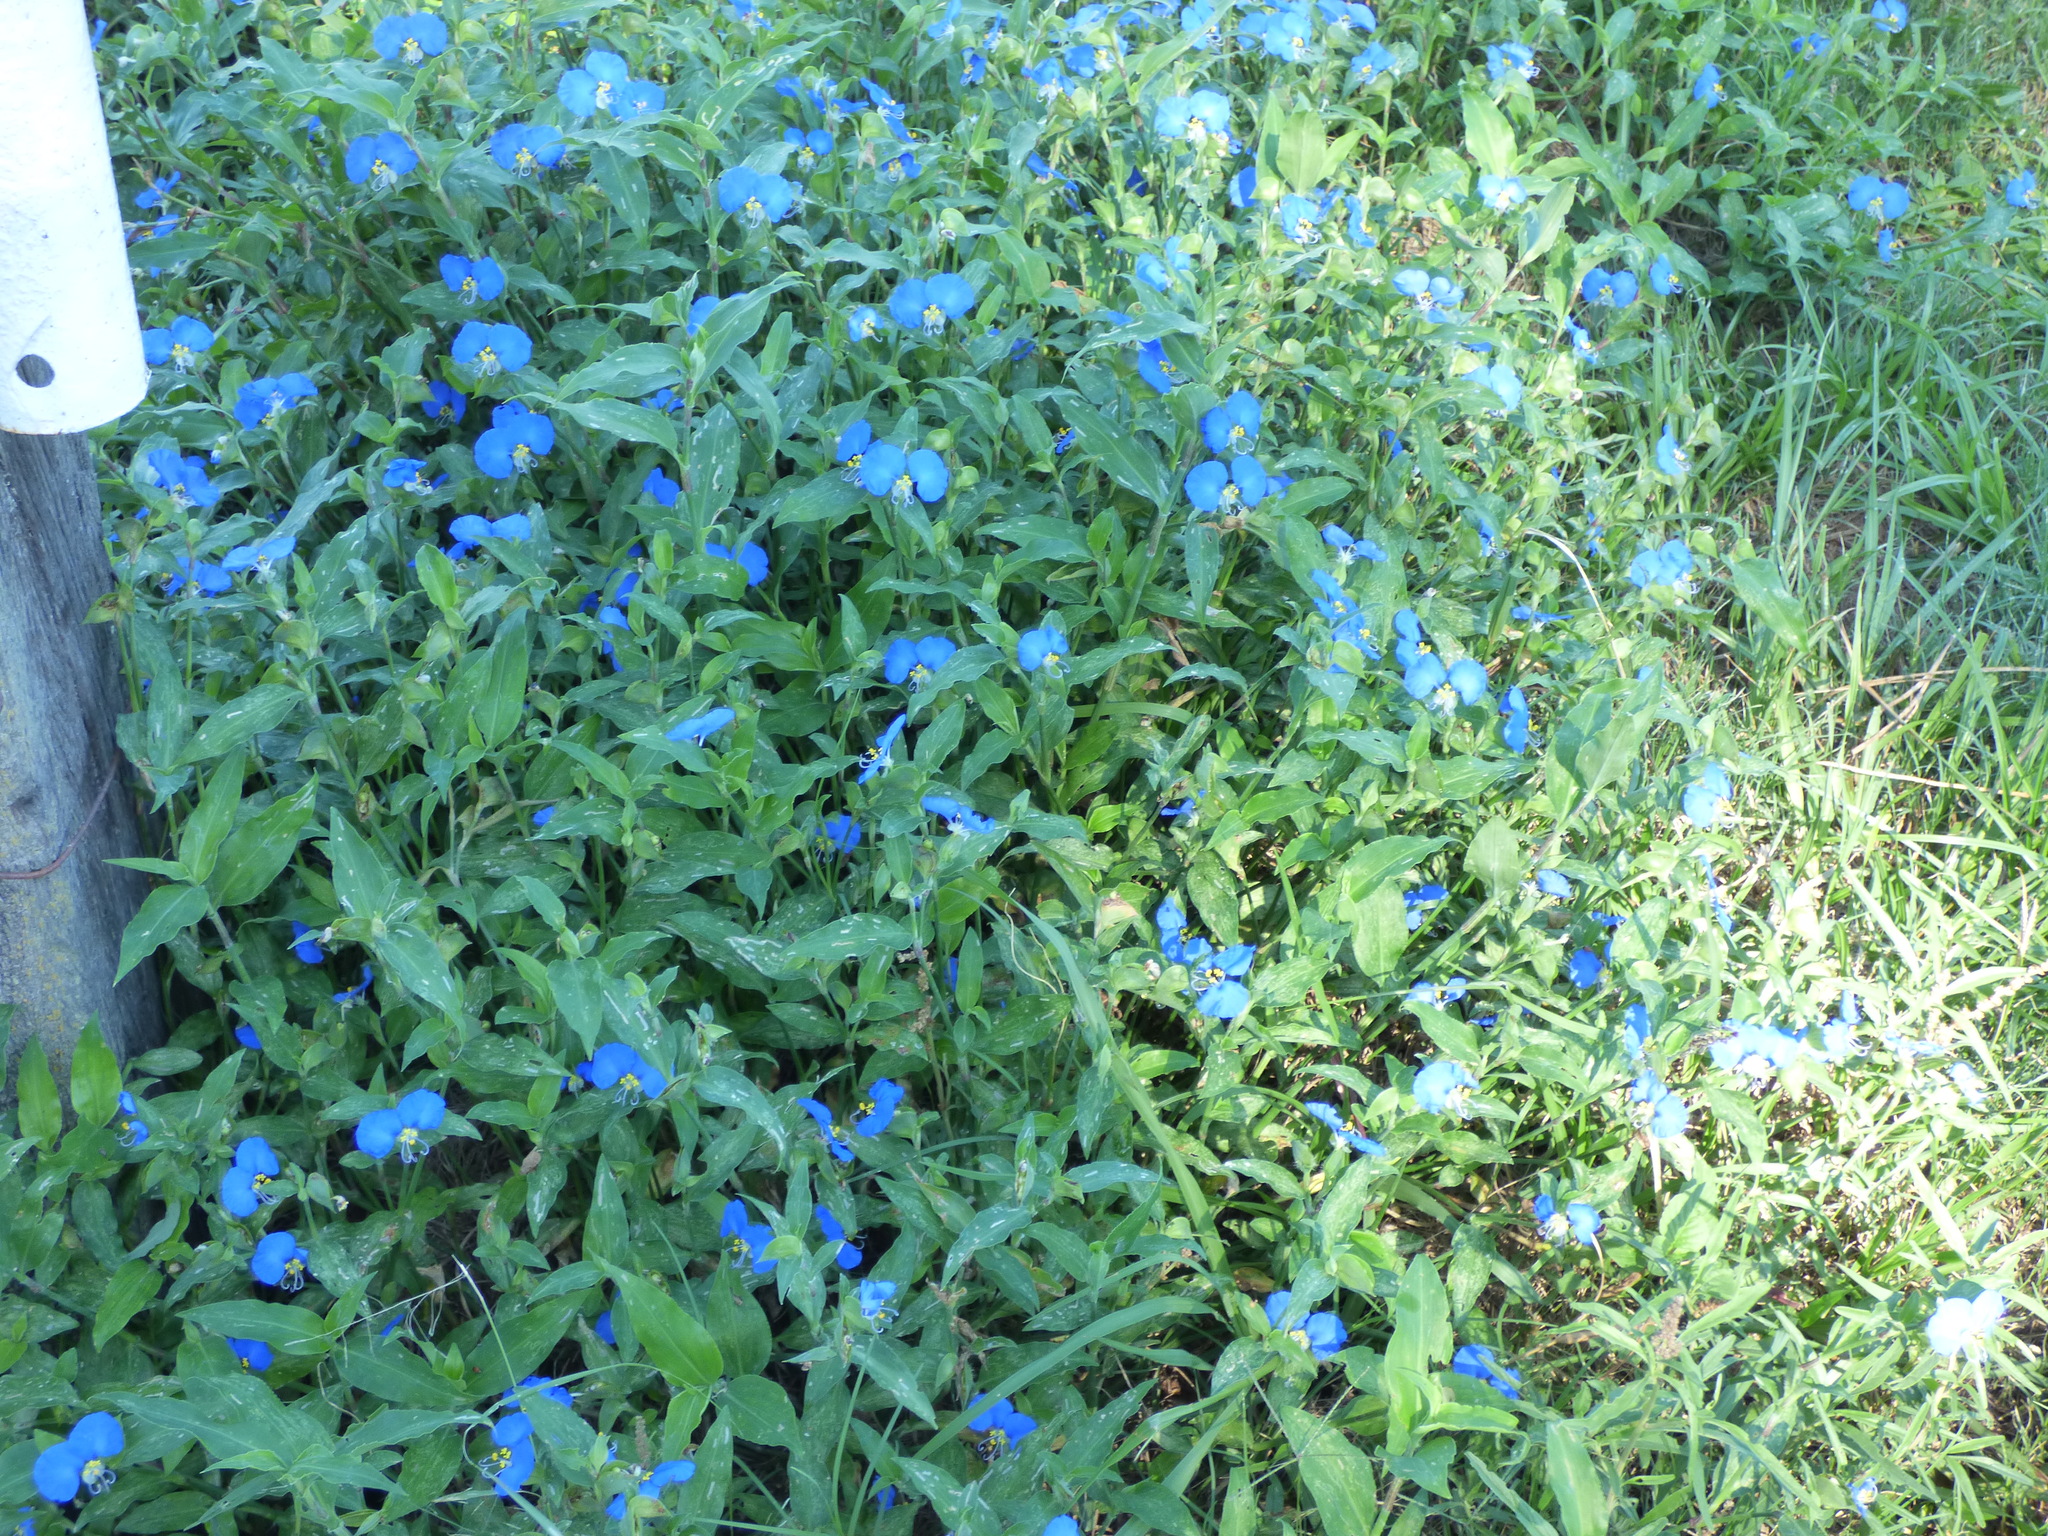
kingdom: Plantae
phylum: Tracheophyta
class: Liliopsida
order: Commelinales
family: Commelinaceae
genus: Commelina
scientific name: Commelina erecta
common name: Blousel blommetjie
